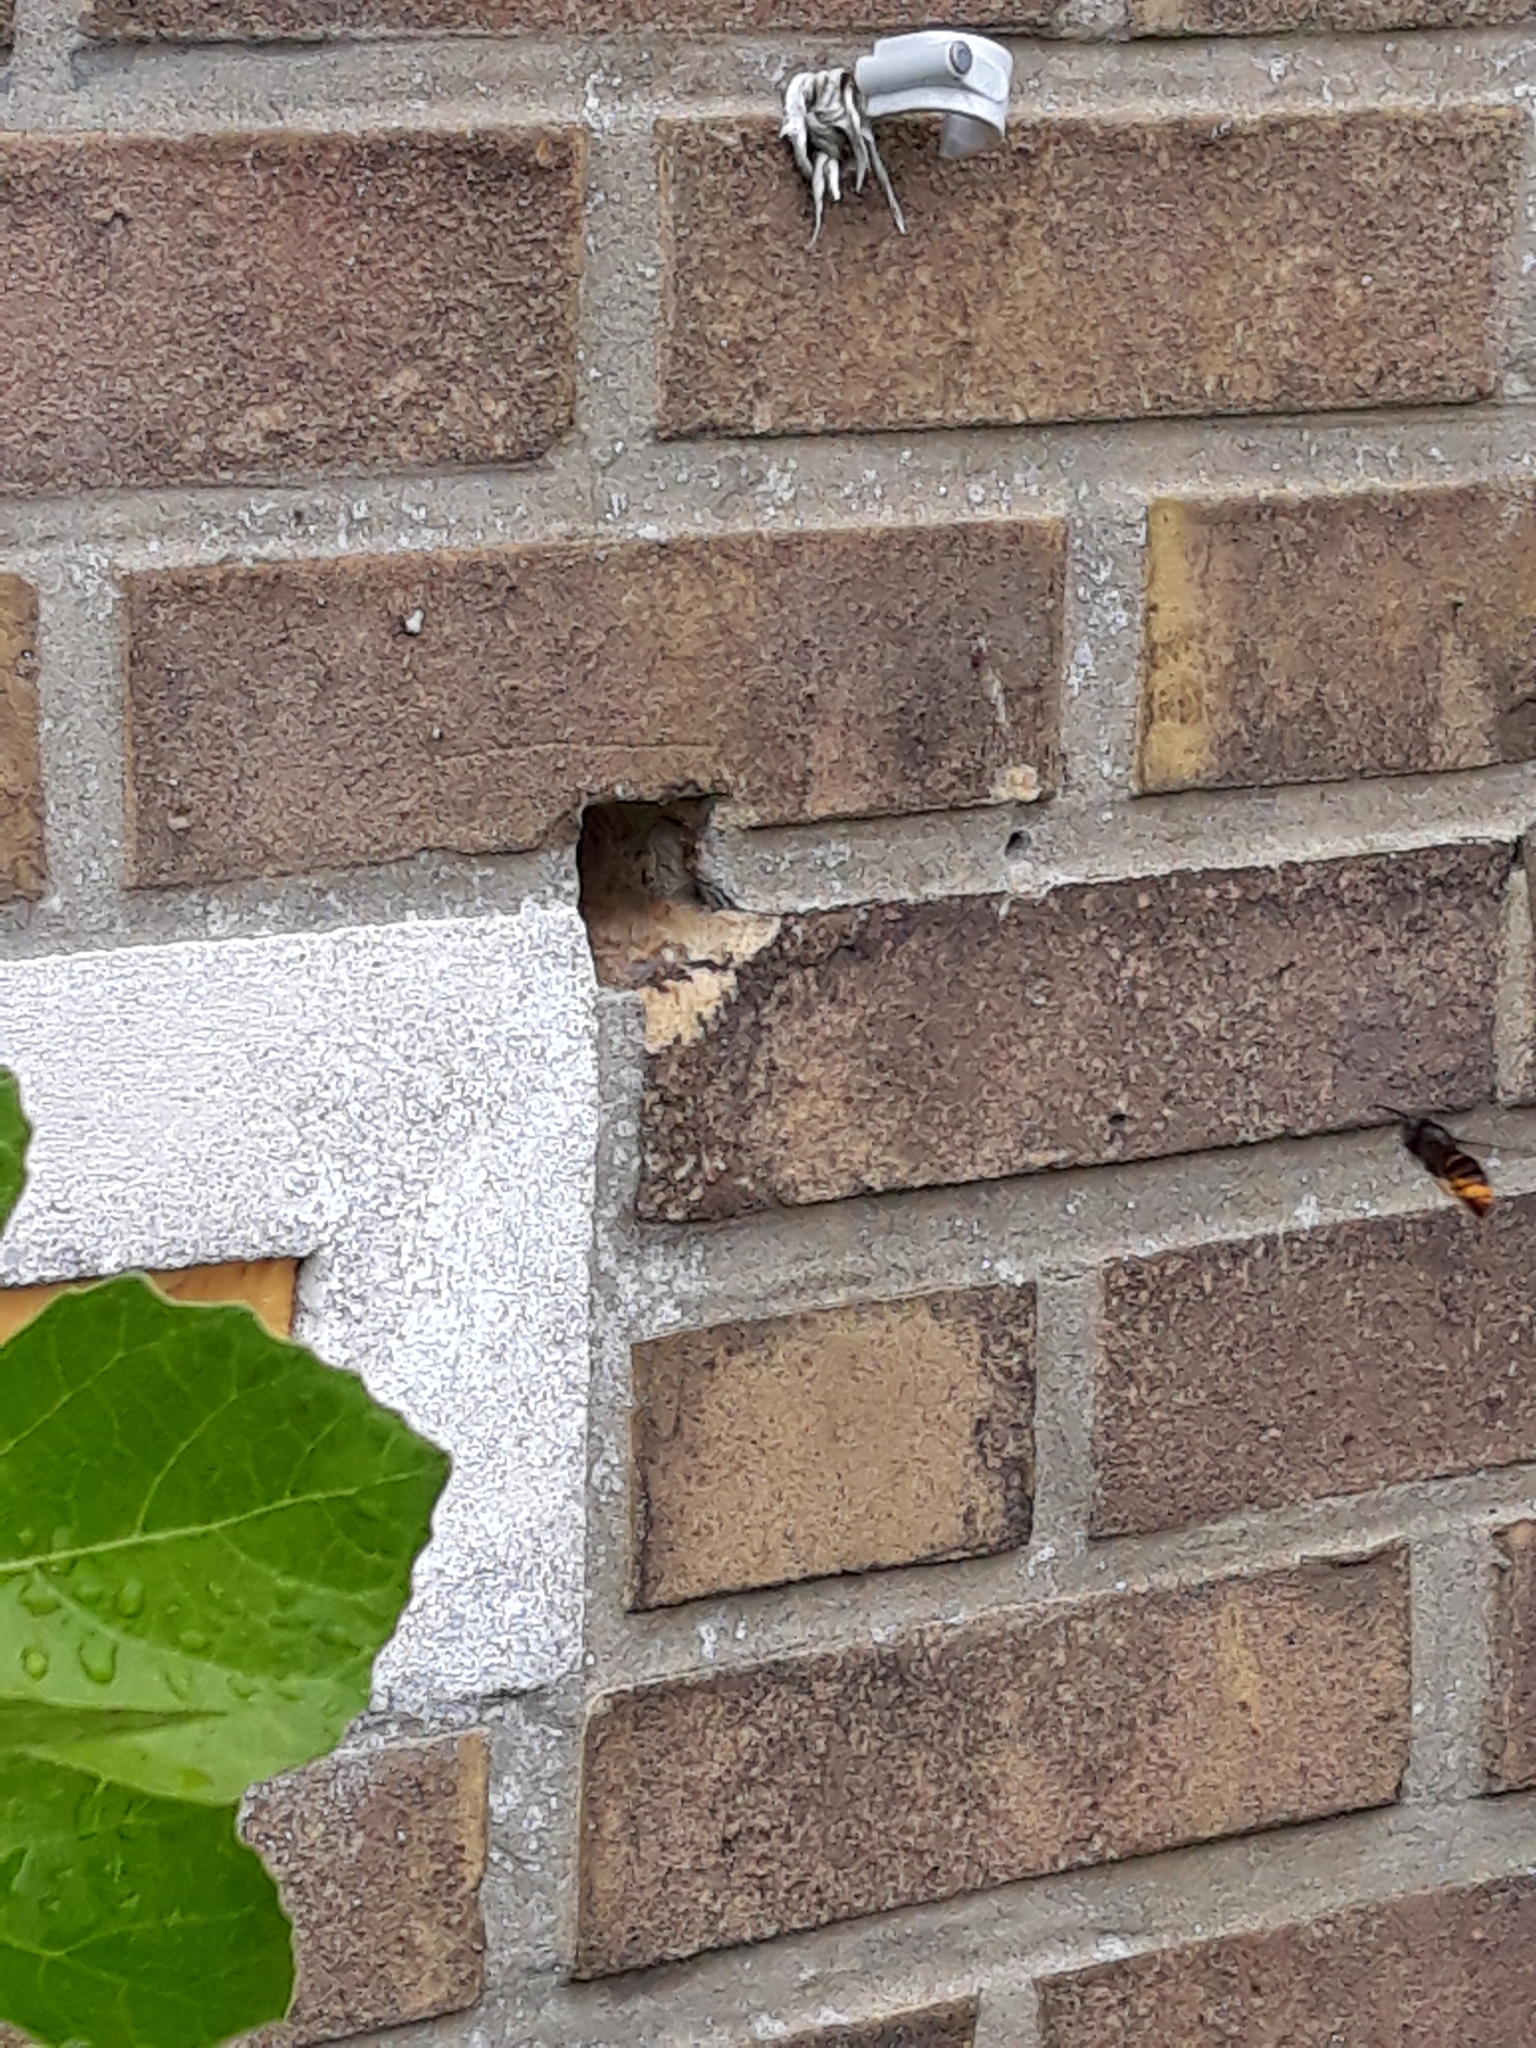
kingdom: Animalia
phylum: Arthropoda
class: Insecta
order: Hymenoptera
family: Vespidae
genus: Vespa
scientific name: Vespa velutina
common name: Asian hornet
